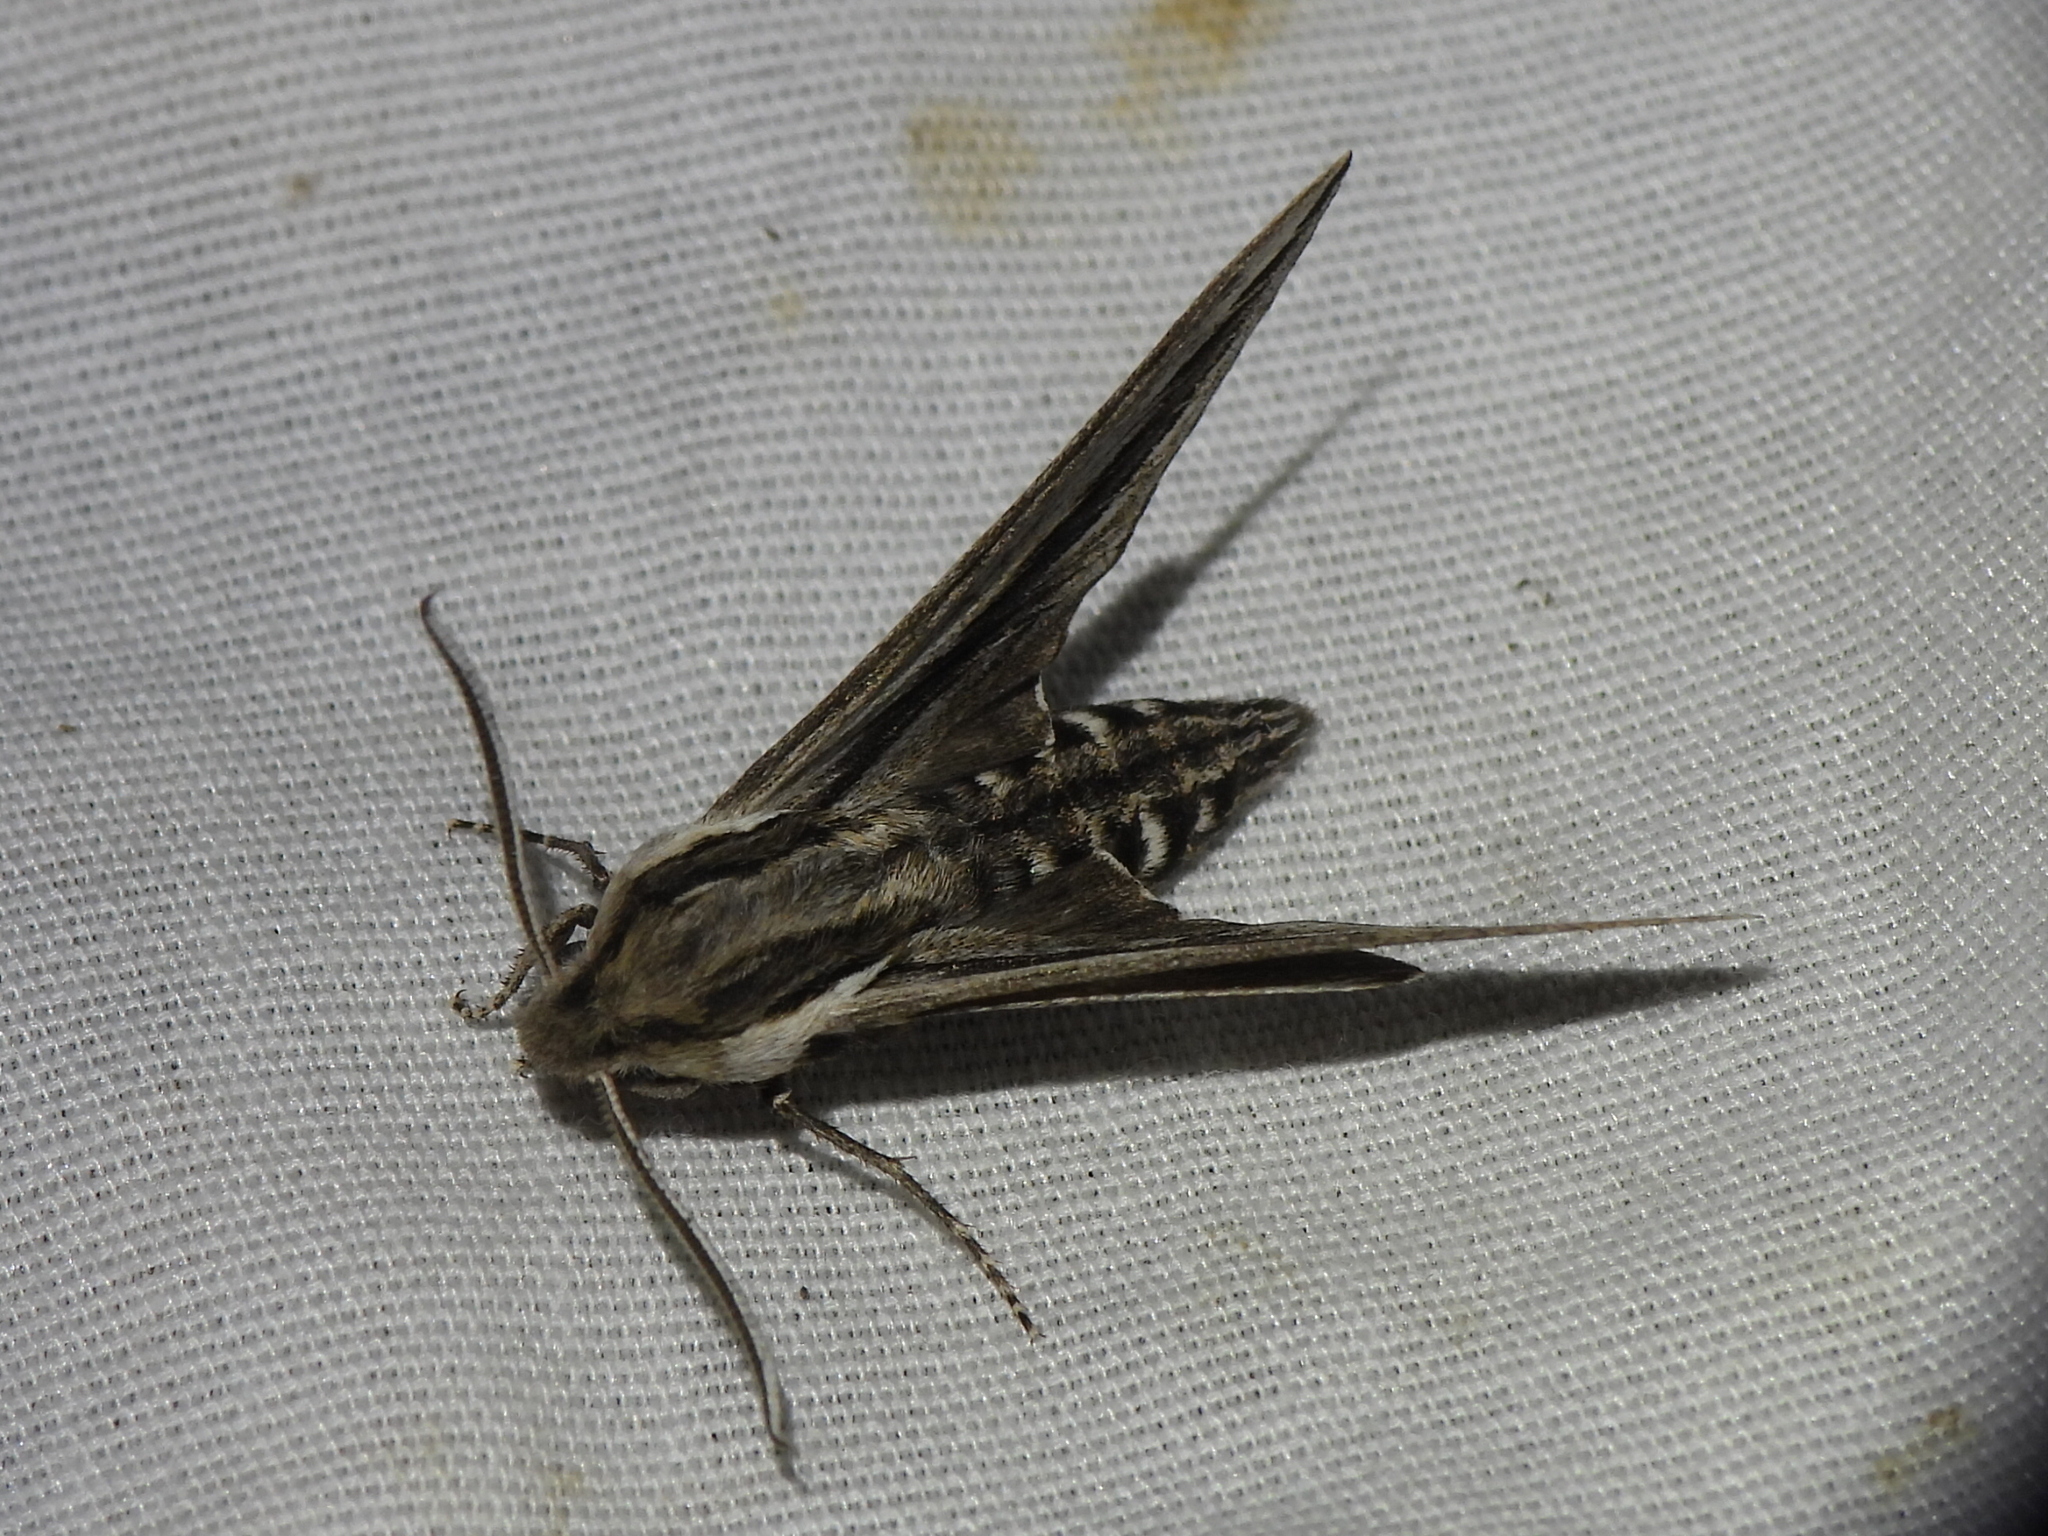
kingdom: Animalia
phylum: Arthropoda
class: Insecta
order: Lepidoptera
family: Sphingidae
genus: Sphinx
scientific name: Sphinx vanbuskirki
